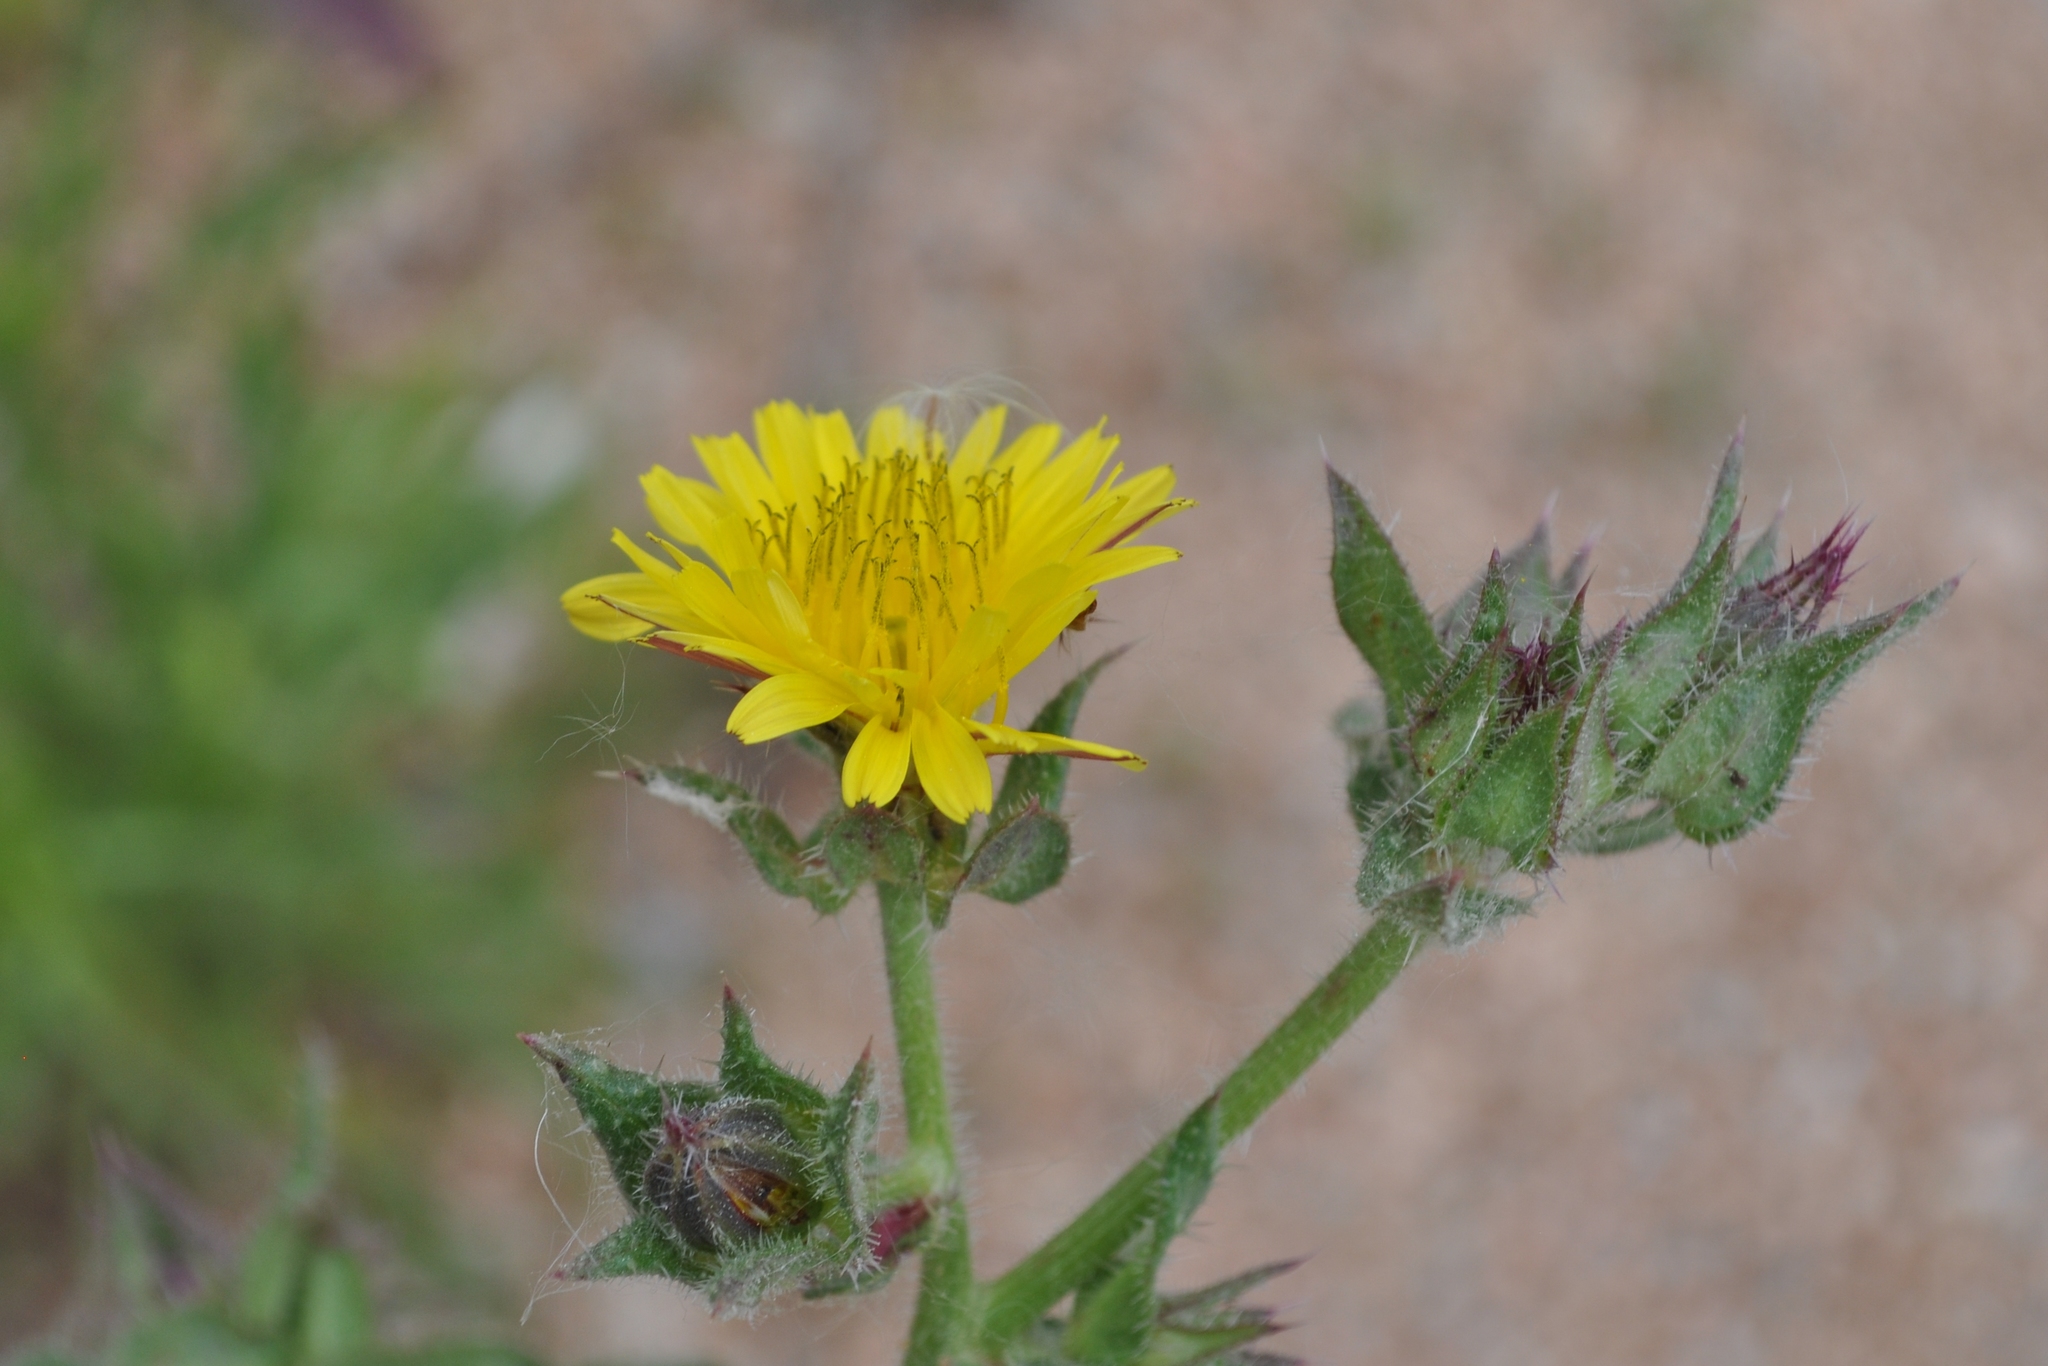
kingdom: Plantae
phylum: Tracheophyta
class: Magnoliopsida
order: Asterales
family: Asteraceae
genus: Helminthotheca
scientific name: Helminthotheca echioides
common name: Ox-tongue
